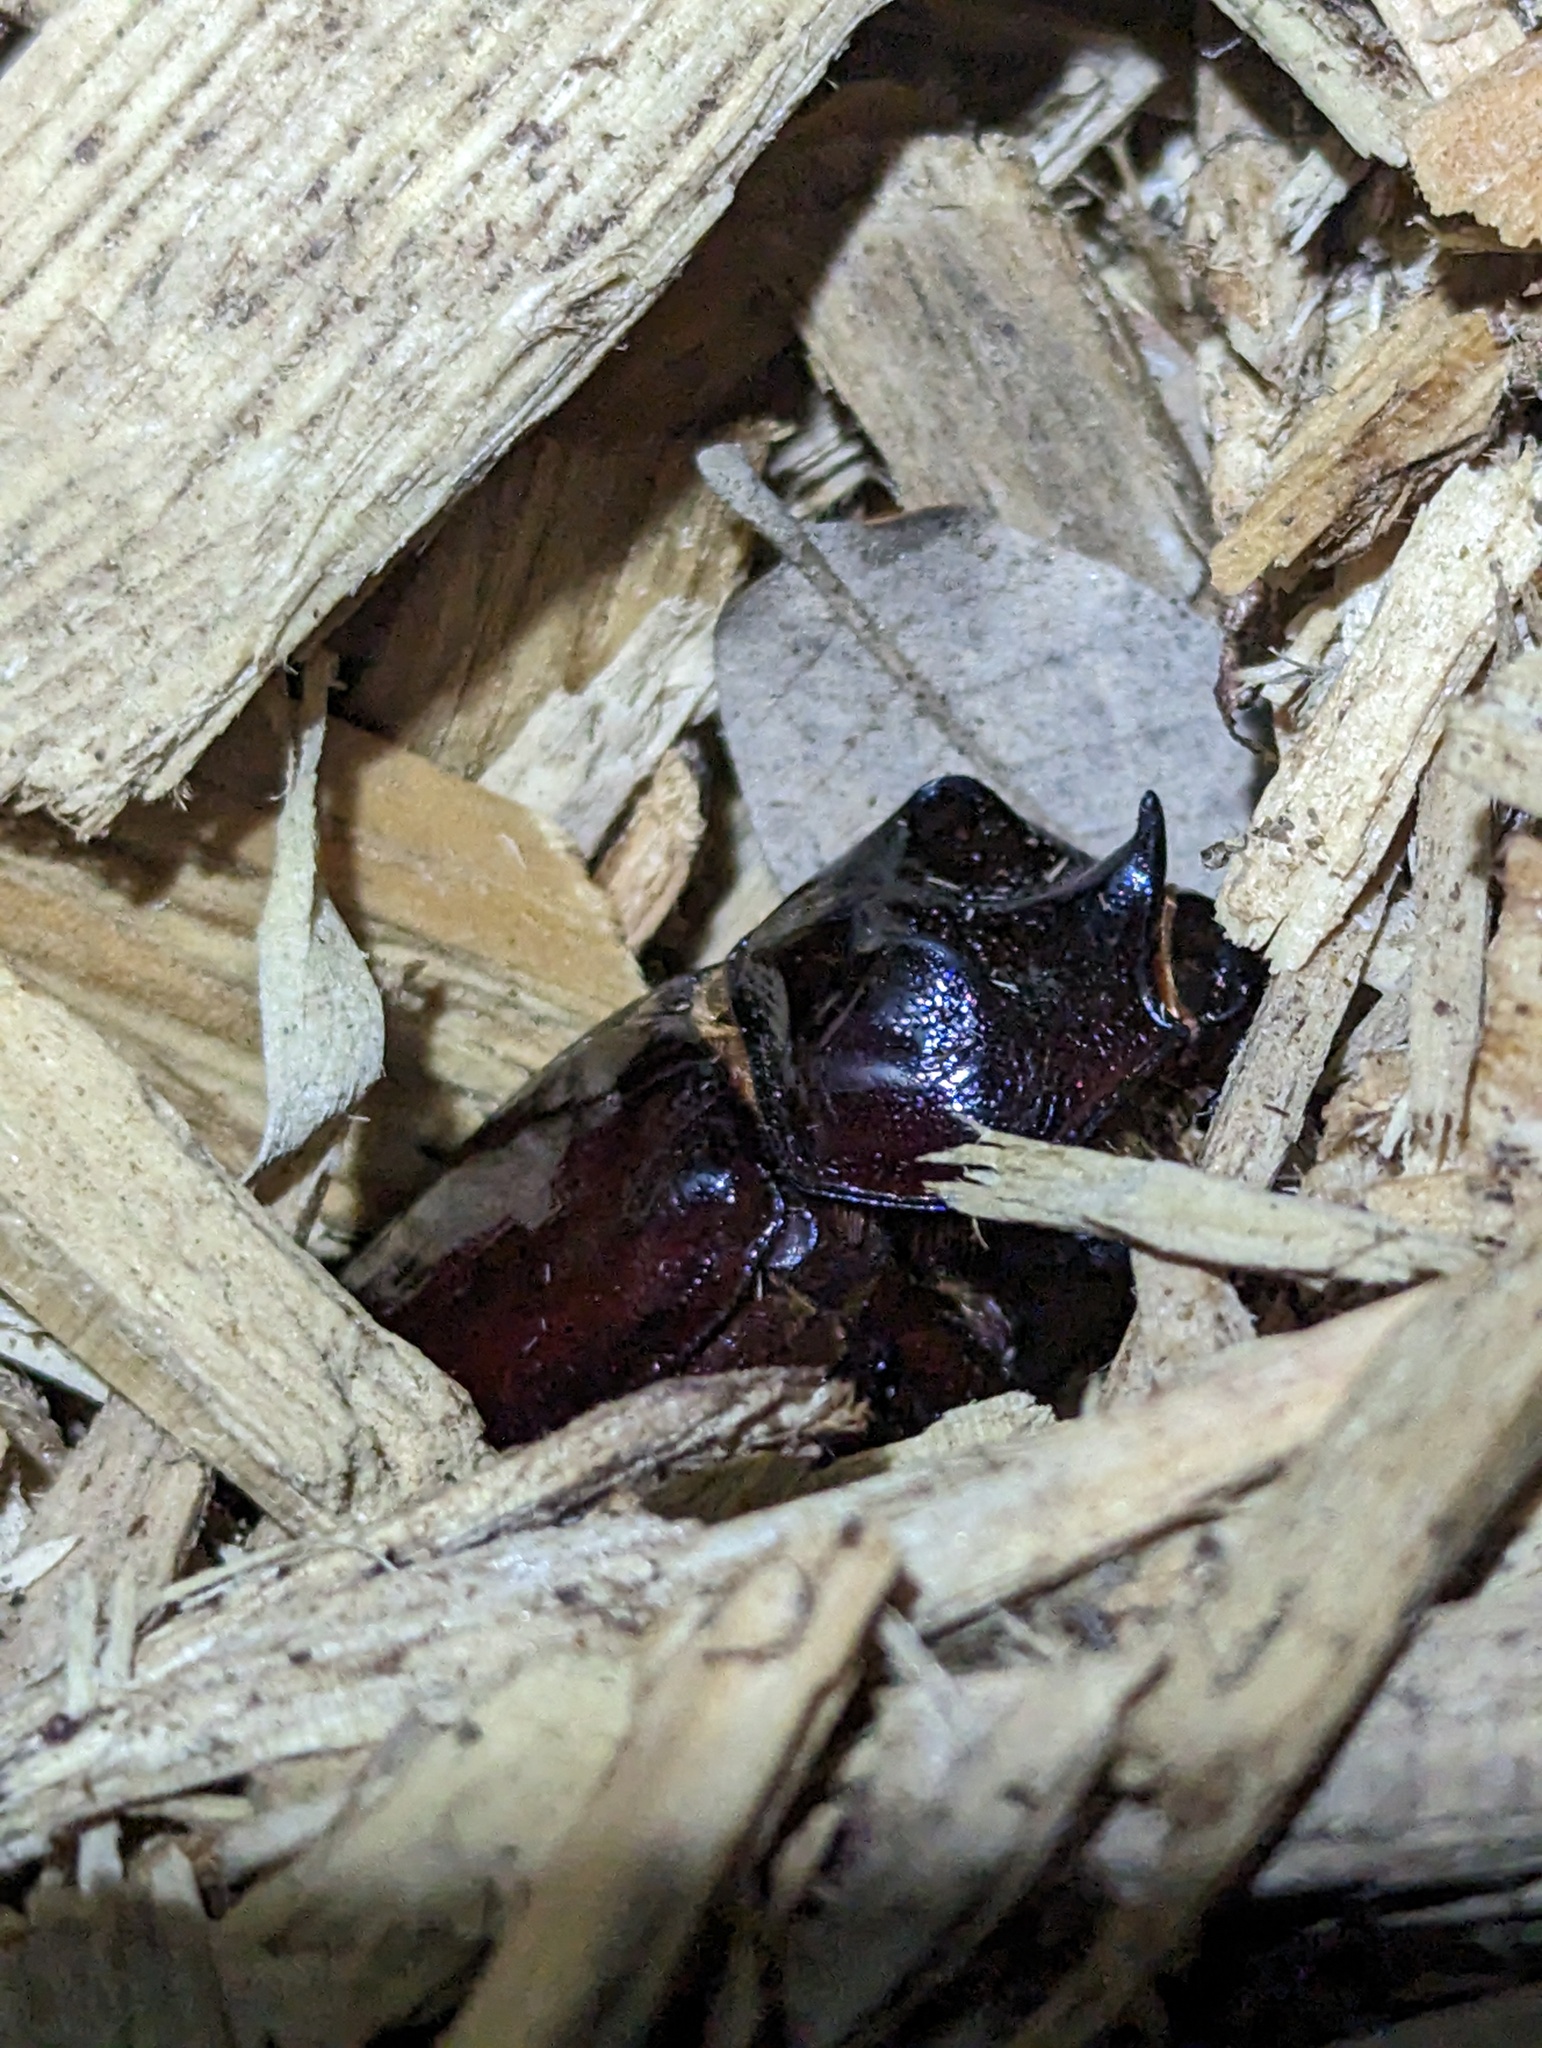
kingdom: Animalia
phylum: Arthropoda
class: Insecta
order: Coleoptera
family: Scarabaeidae
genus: Strategus
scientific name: Strategus aloeus
